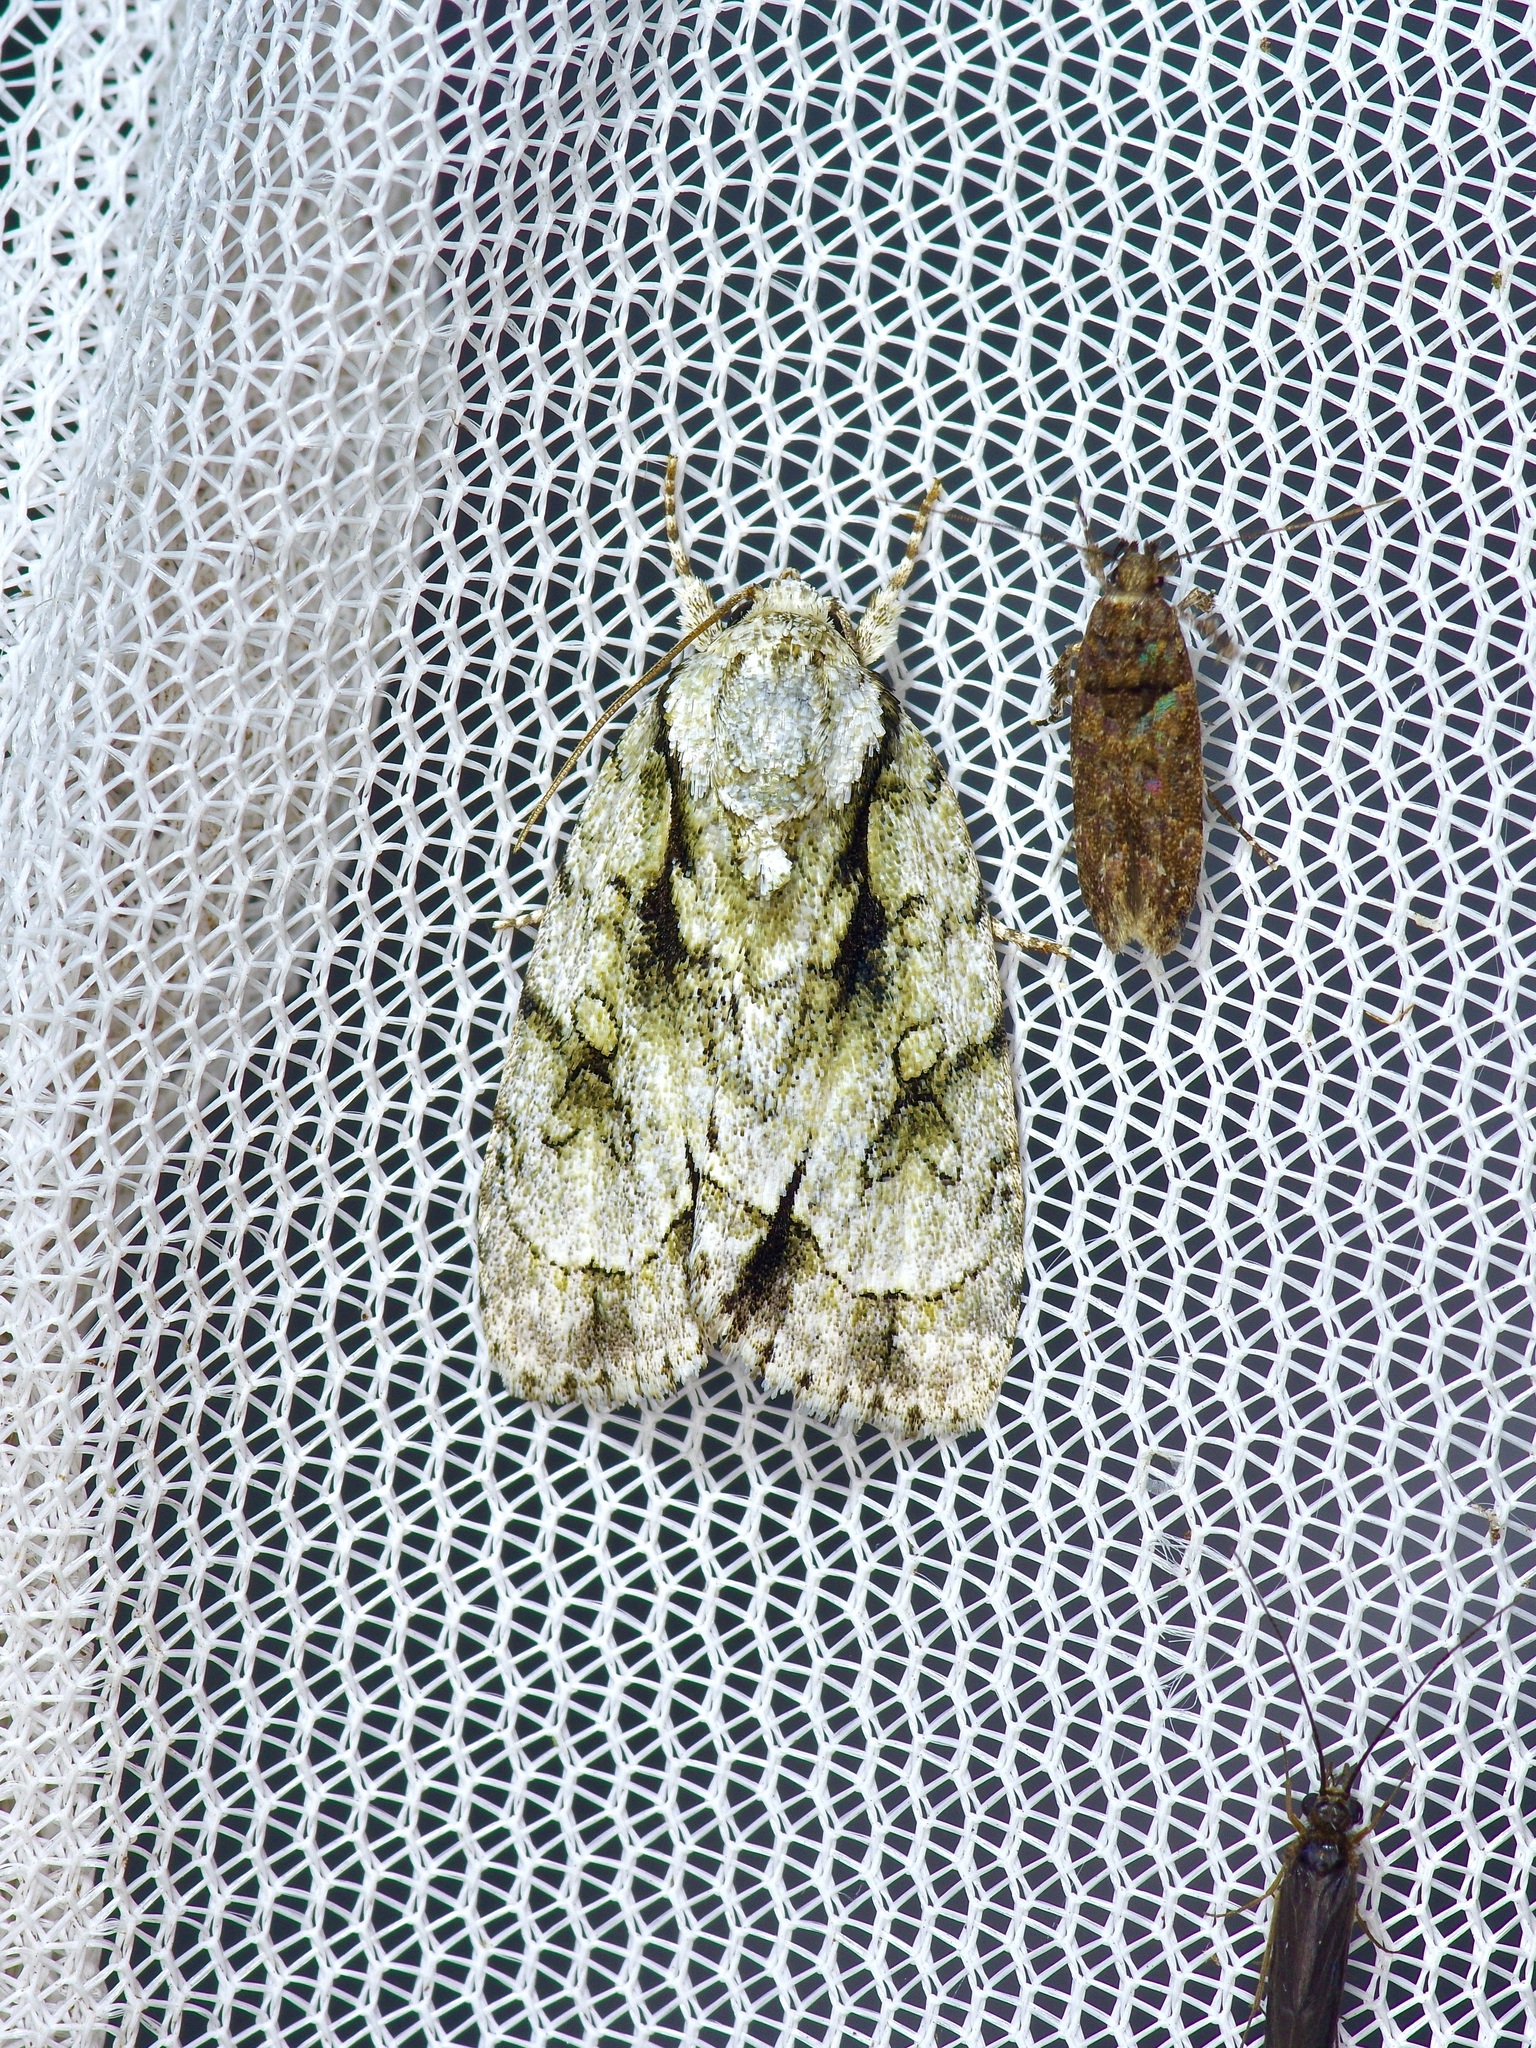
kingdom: Animalia
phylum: Arthropoda
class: Insecta
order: Lepidoptera
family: Noctuidae
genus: Acronicta
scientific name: Acronicta vinnula
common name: Delightful dagger
